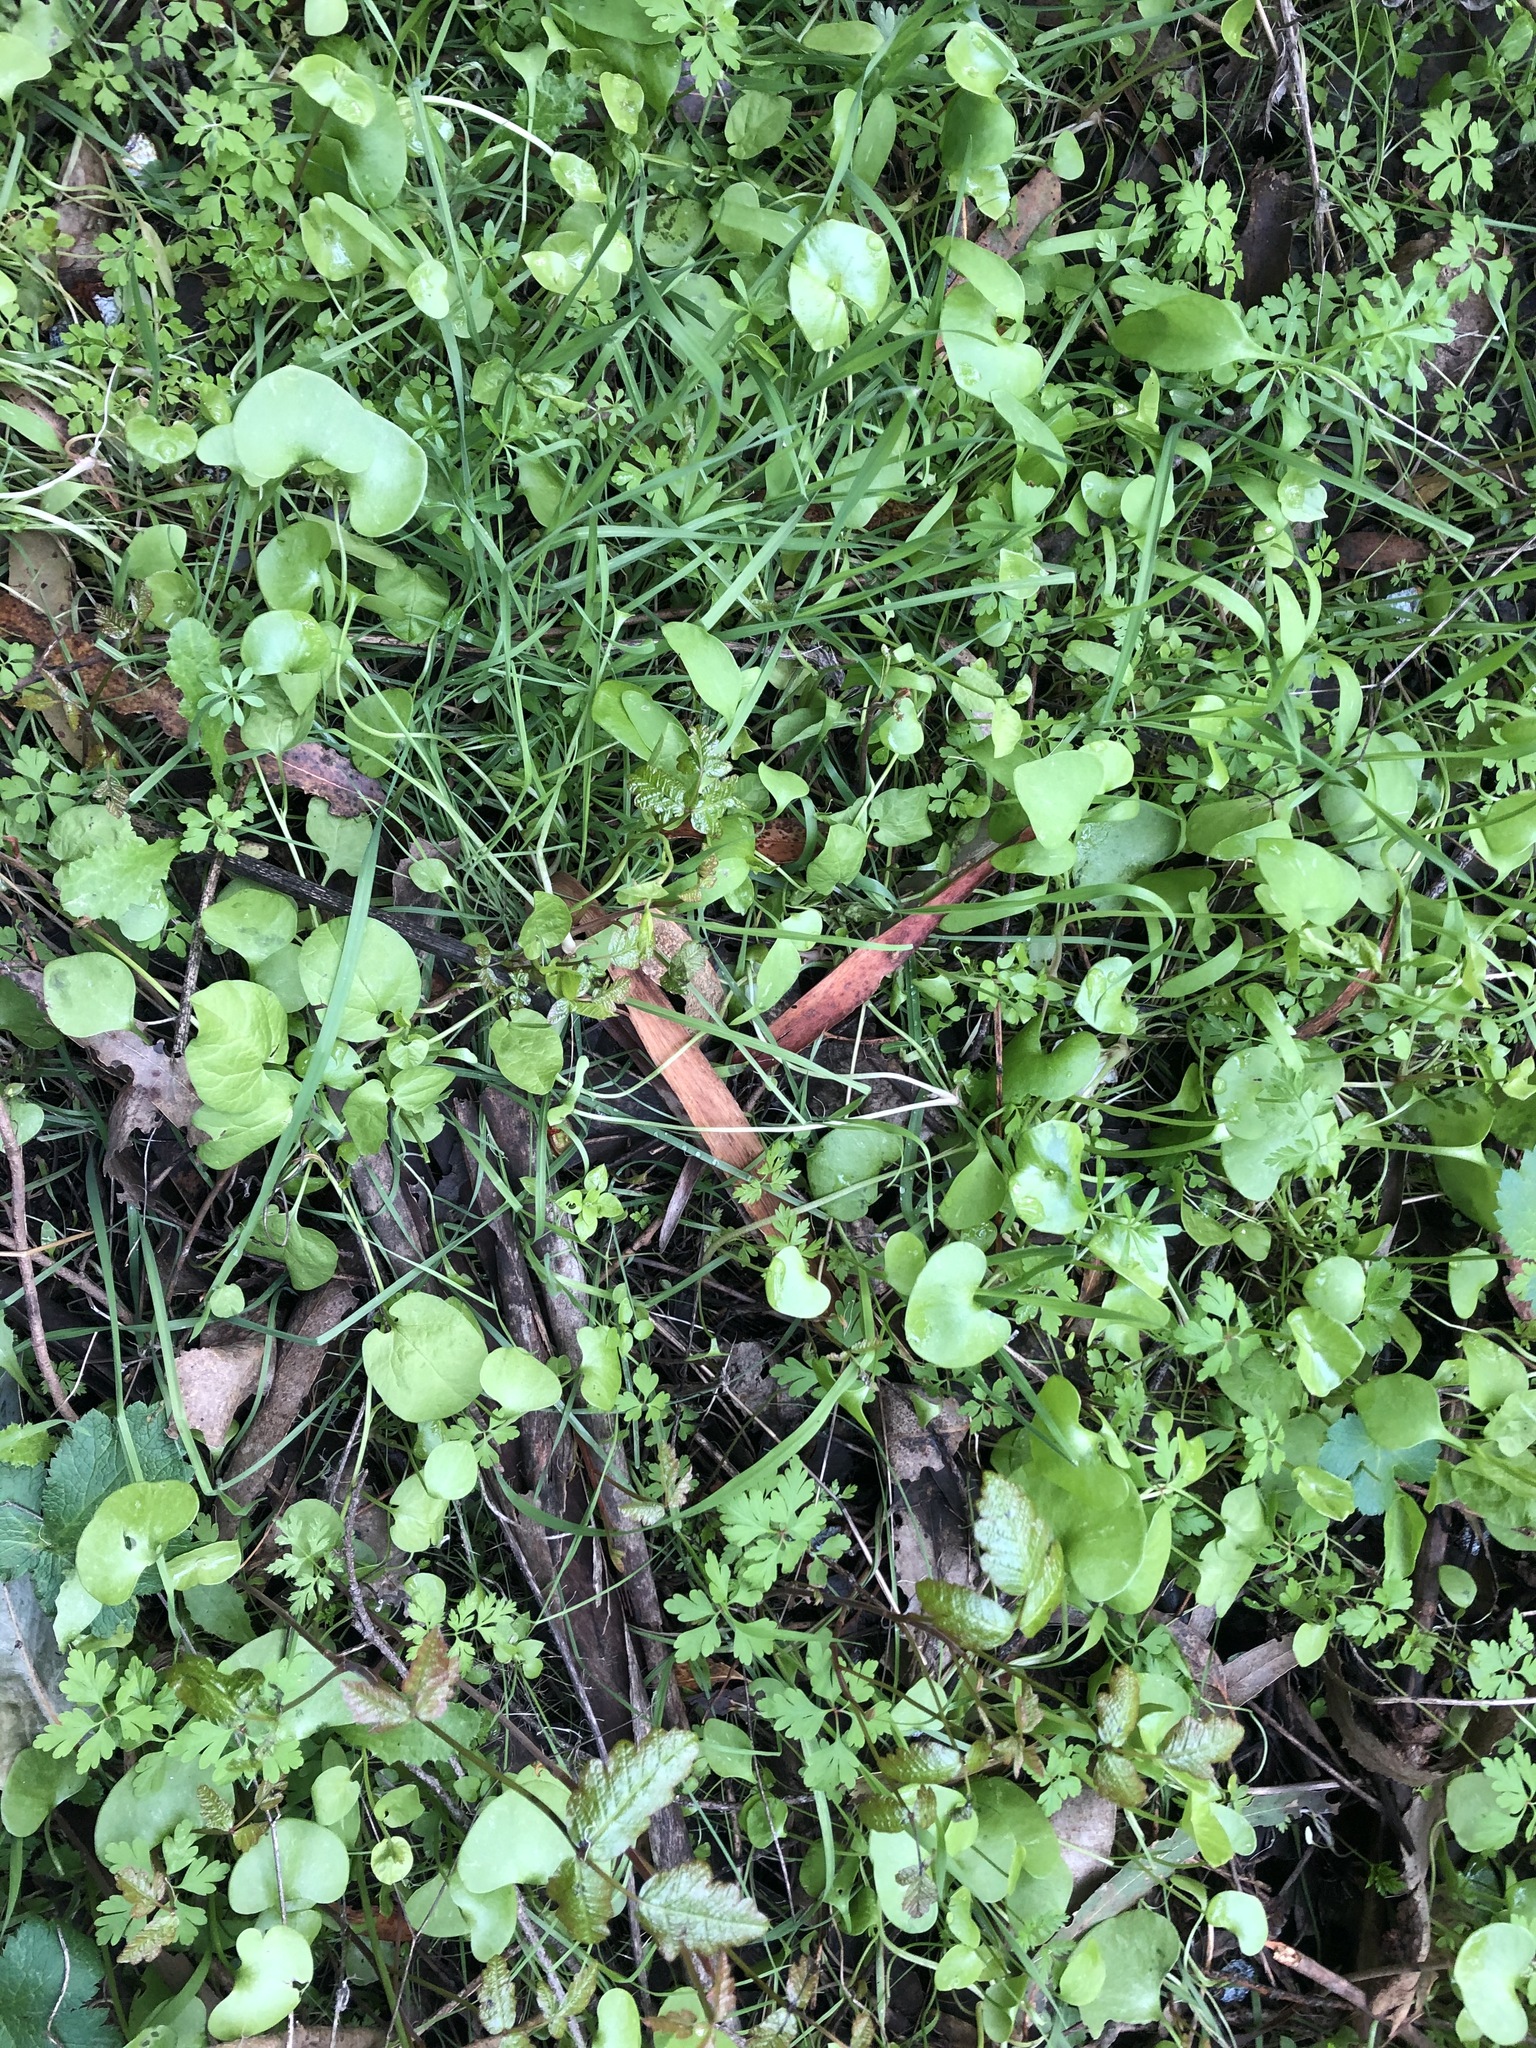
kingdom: Plantae
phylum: Tracheophyta
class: Magnoliopsida
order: Caryophyllales
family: Montiaceae
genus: Claytonia
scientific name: Claytonia perfoliata
